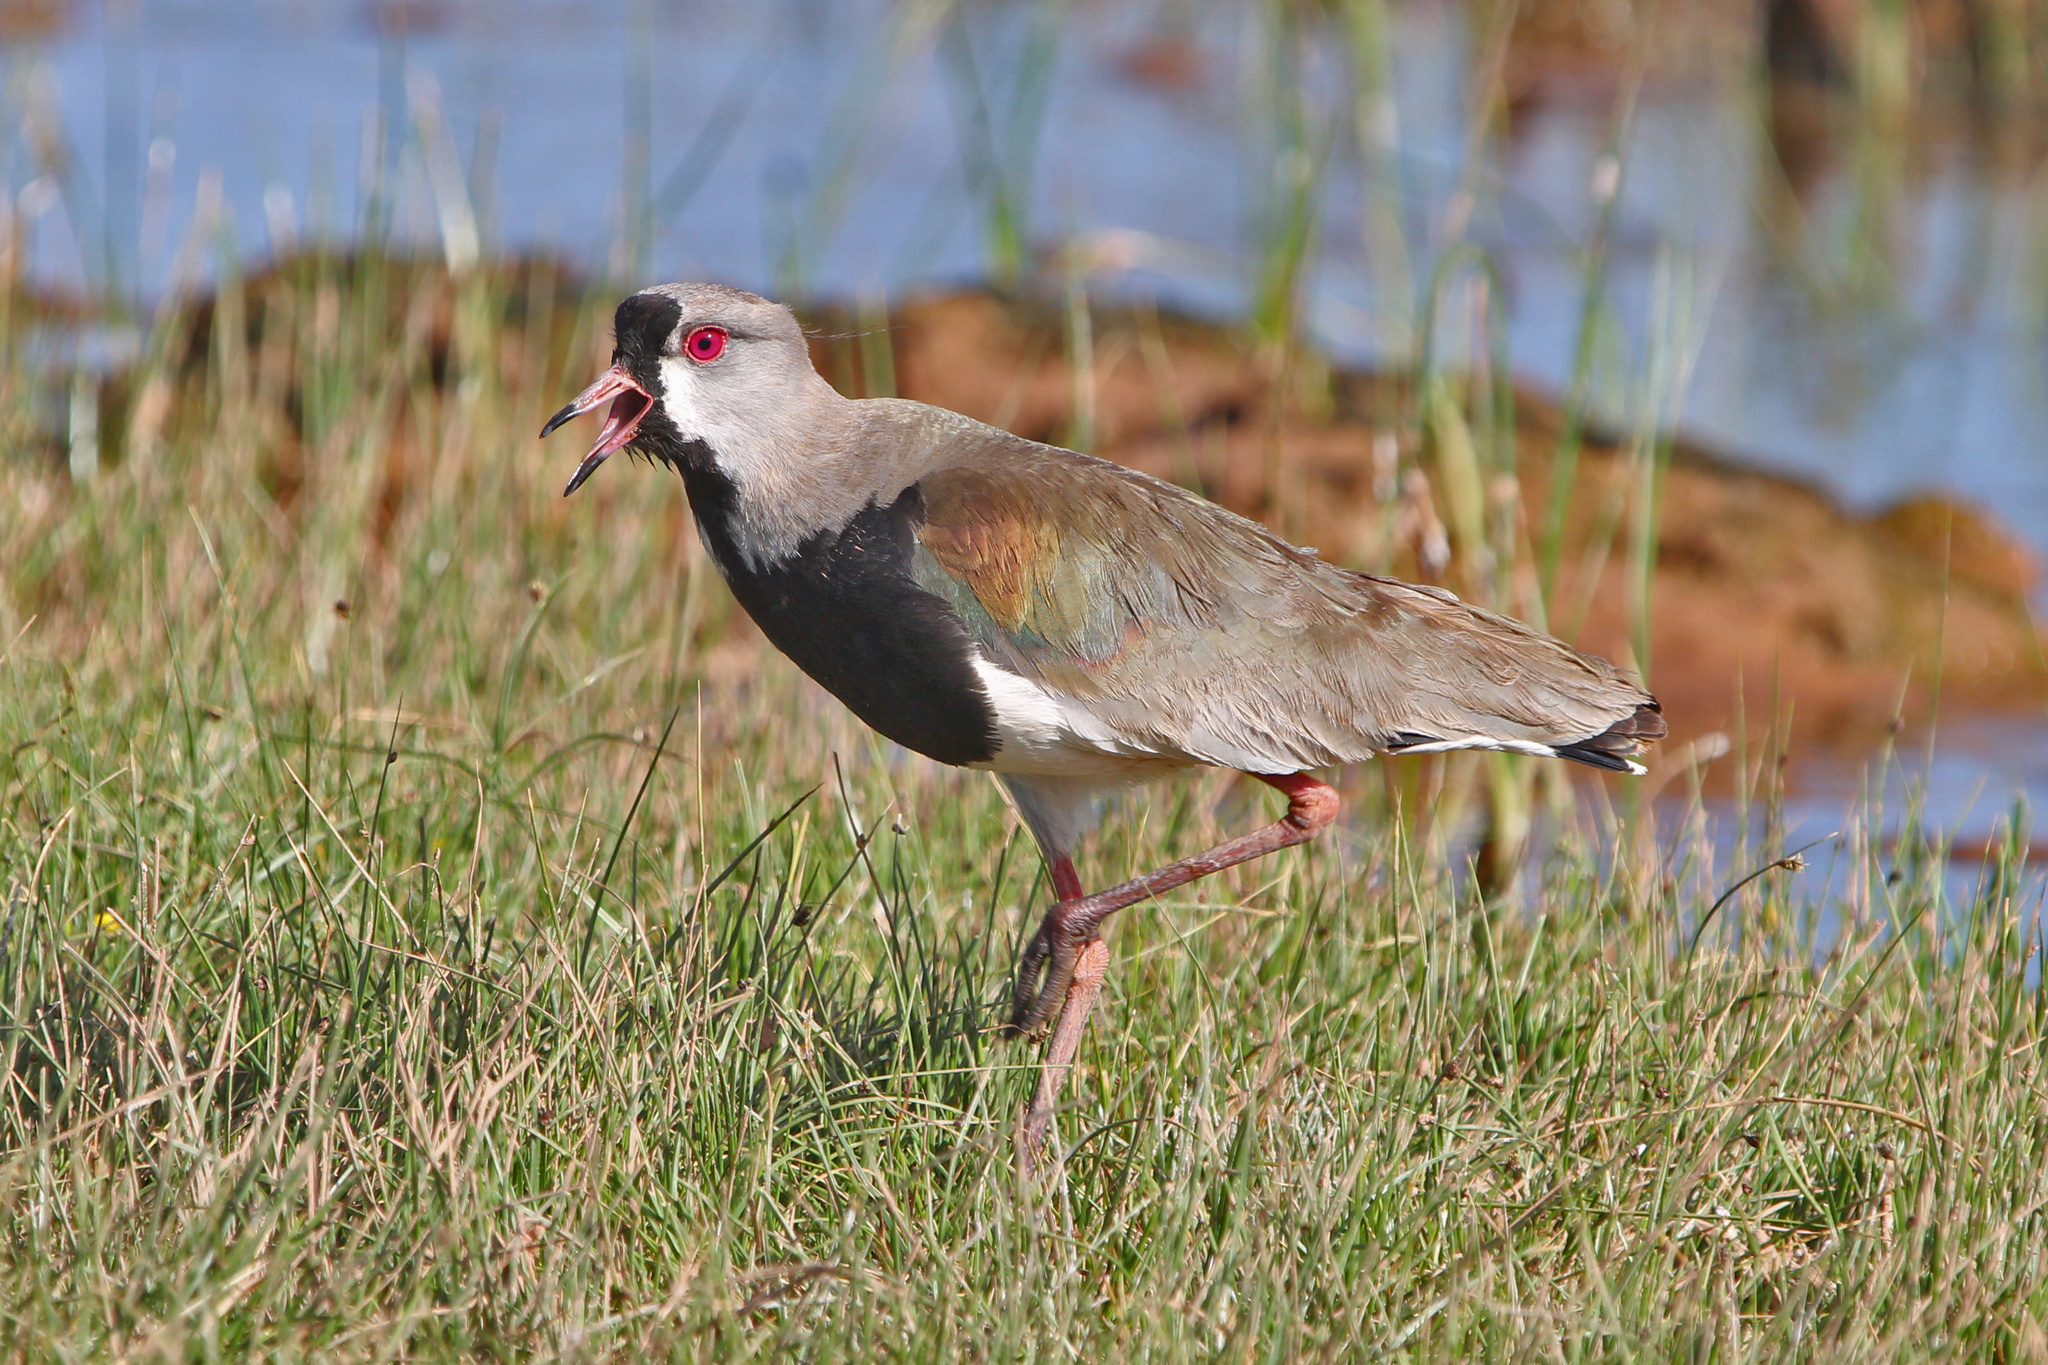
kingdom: Animalia
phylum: Chordata
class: Aves
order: Charadriiformes
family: Charadriidae
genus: Vanellus
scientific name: Vanellus chilensis
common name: Southern lapwing
